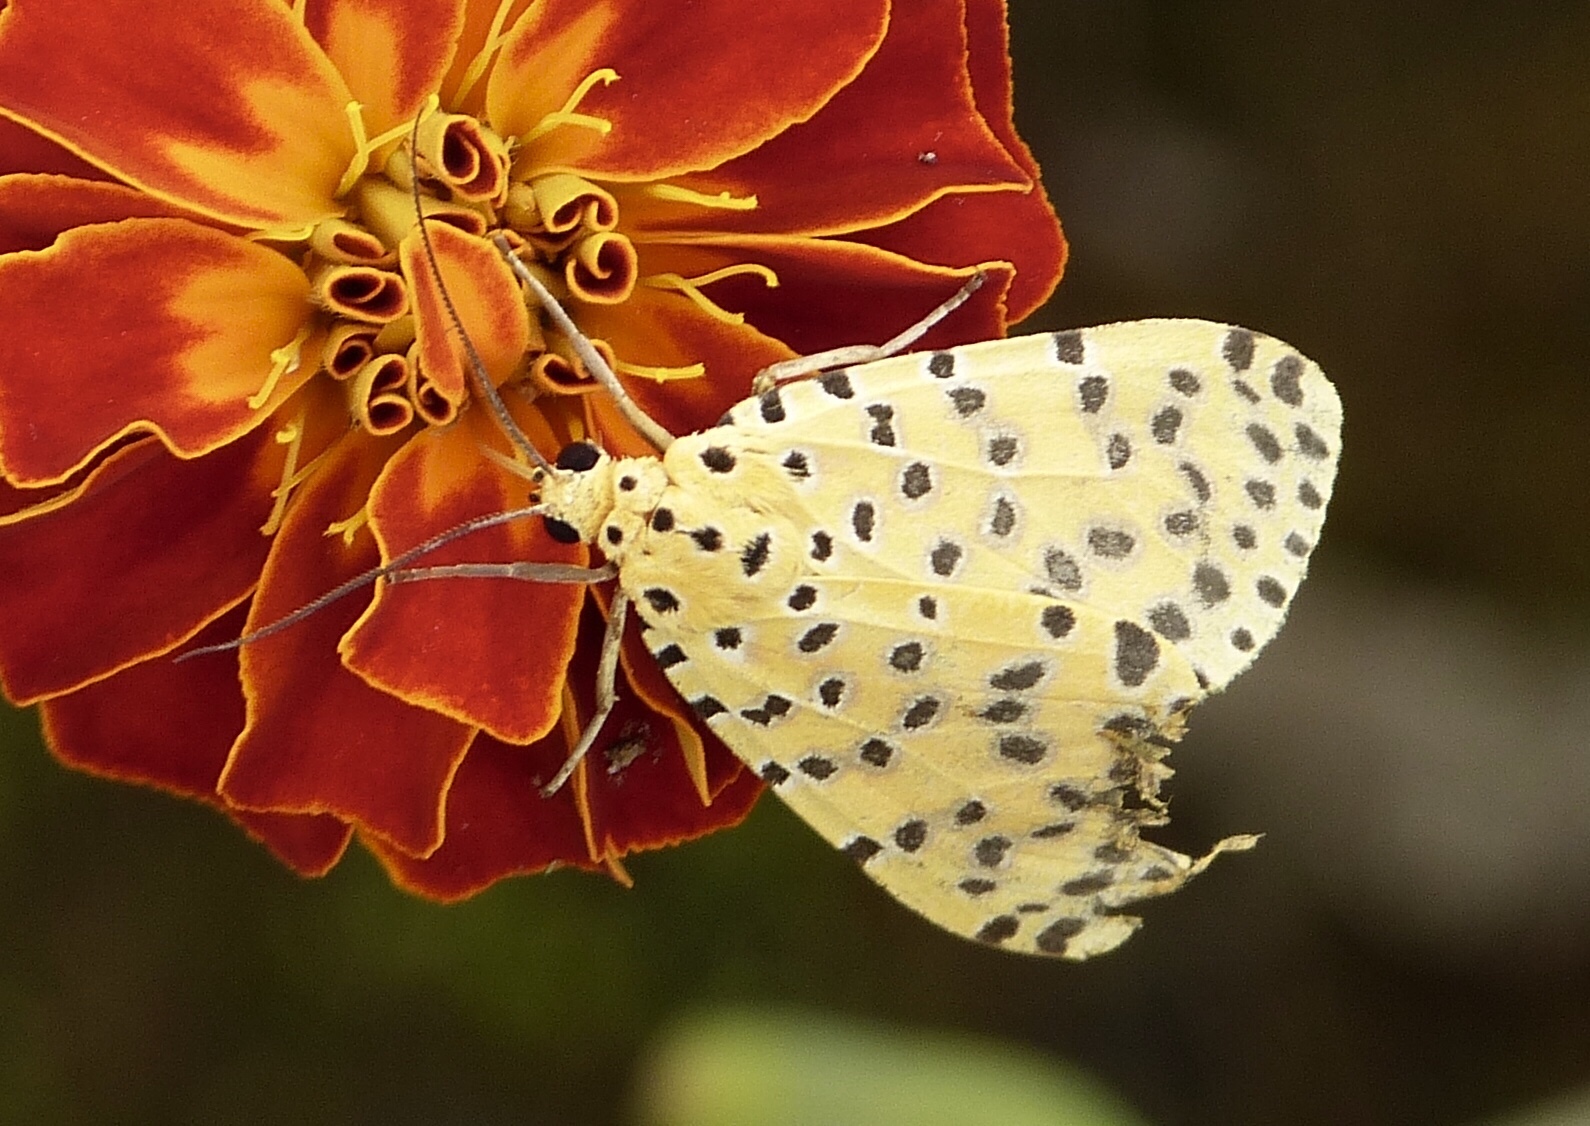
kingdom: Animalia
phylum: Arthropoda
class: Insecta
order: Lepidoptera
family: Erebidae
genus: Argina
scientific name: Argina astrea
